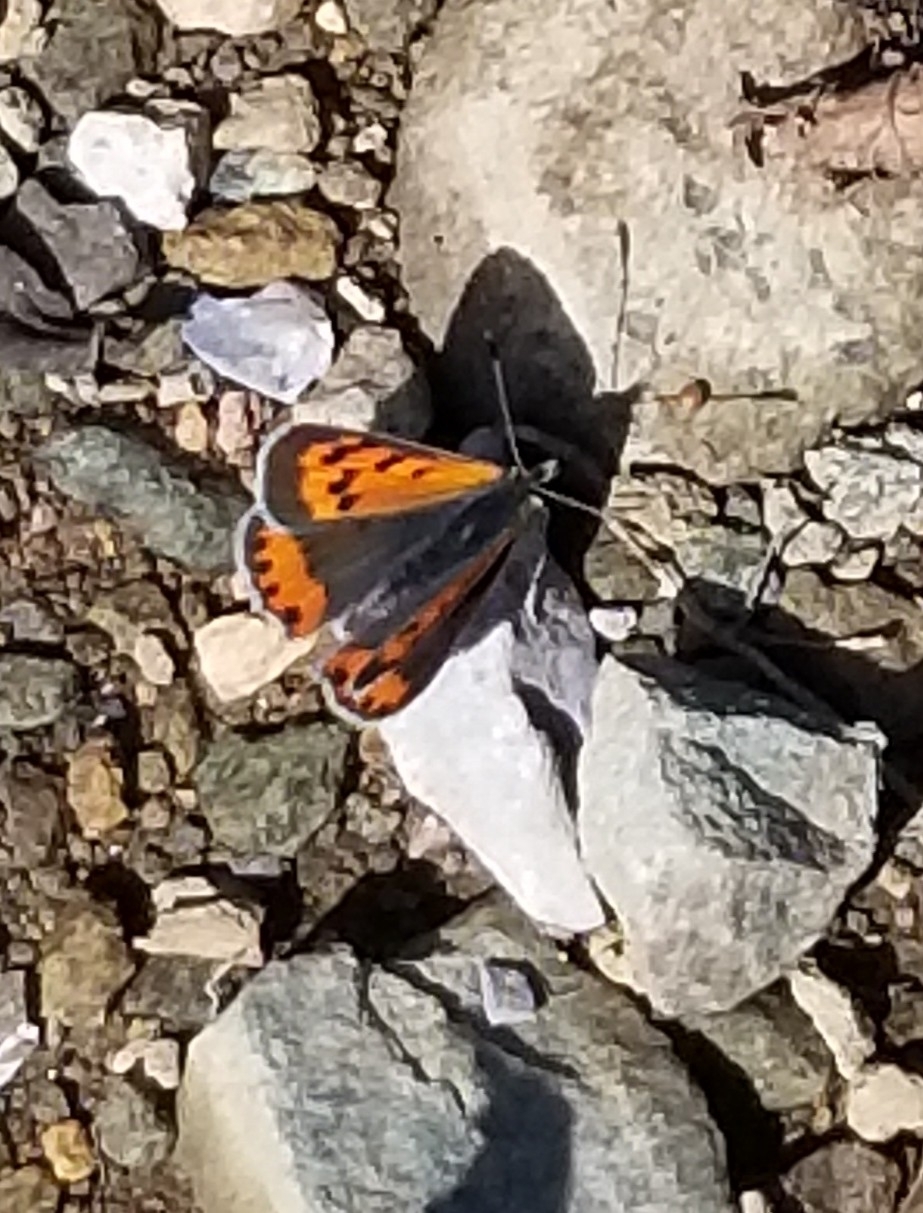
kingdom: Animalia
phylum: Arthropoda
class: Insecta
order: Lepidoptera
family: Lycaenidae
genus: Lycaena
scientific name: Lycaena hypophlaeas
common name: American copper
